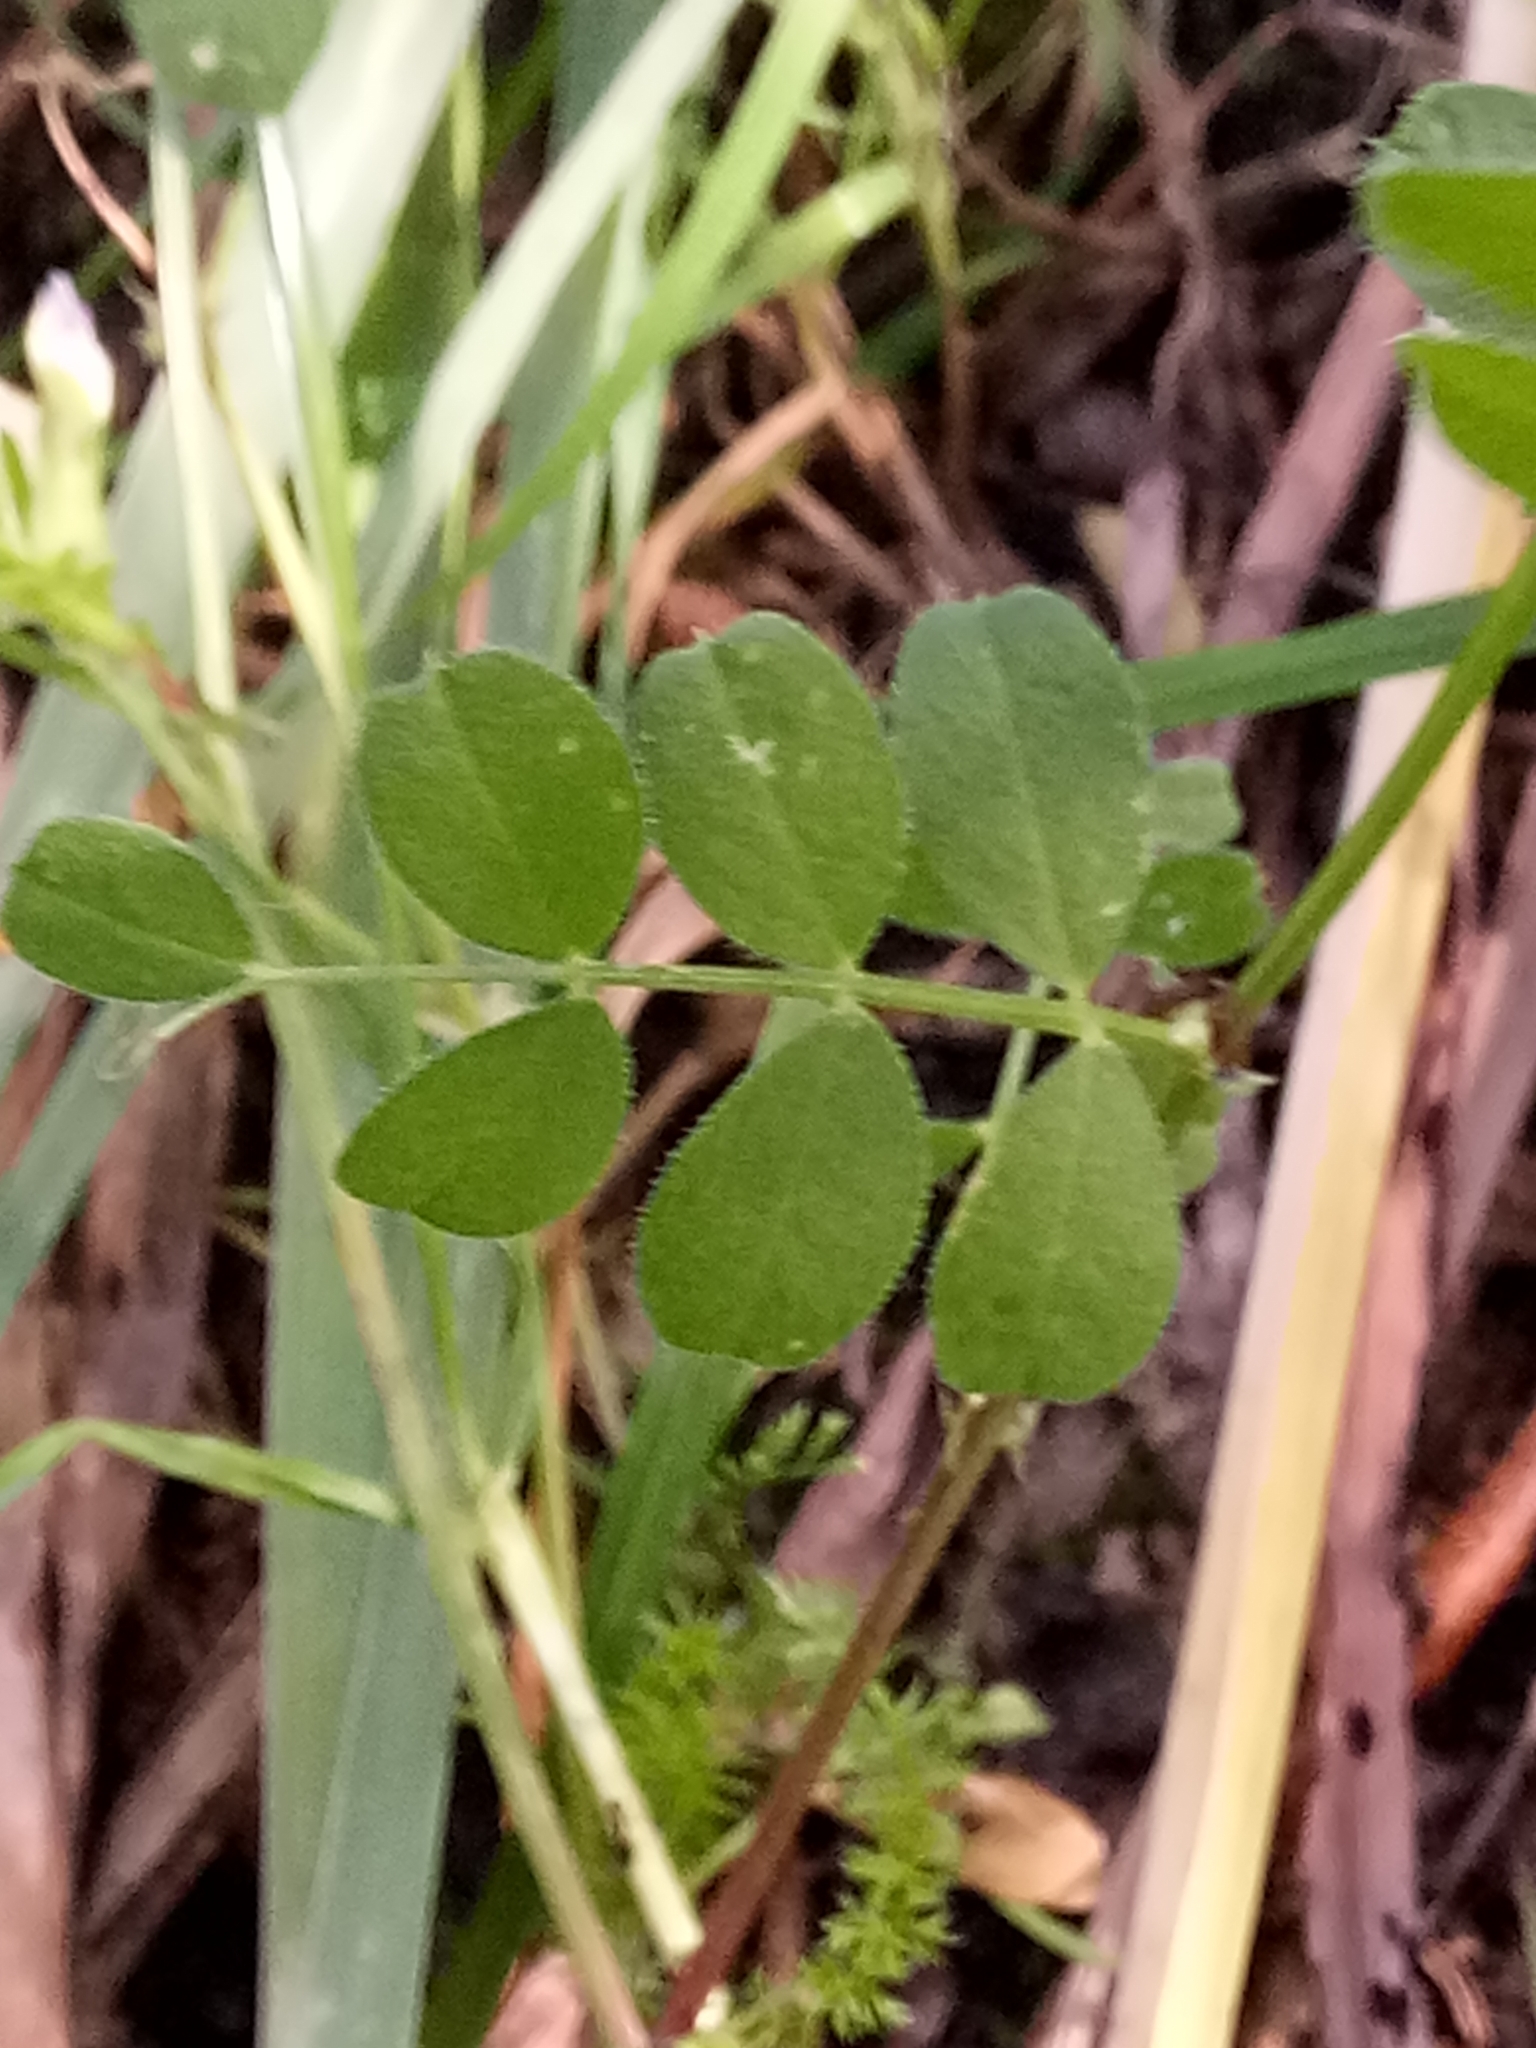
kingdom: Plantae
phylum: Tracheophyta
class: Magnoliopsida
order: Fabales
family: Fabaceae
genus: Vicia
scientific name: Vicia sativa
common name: Garden vetch
